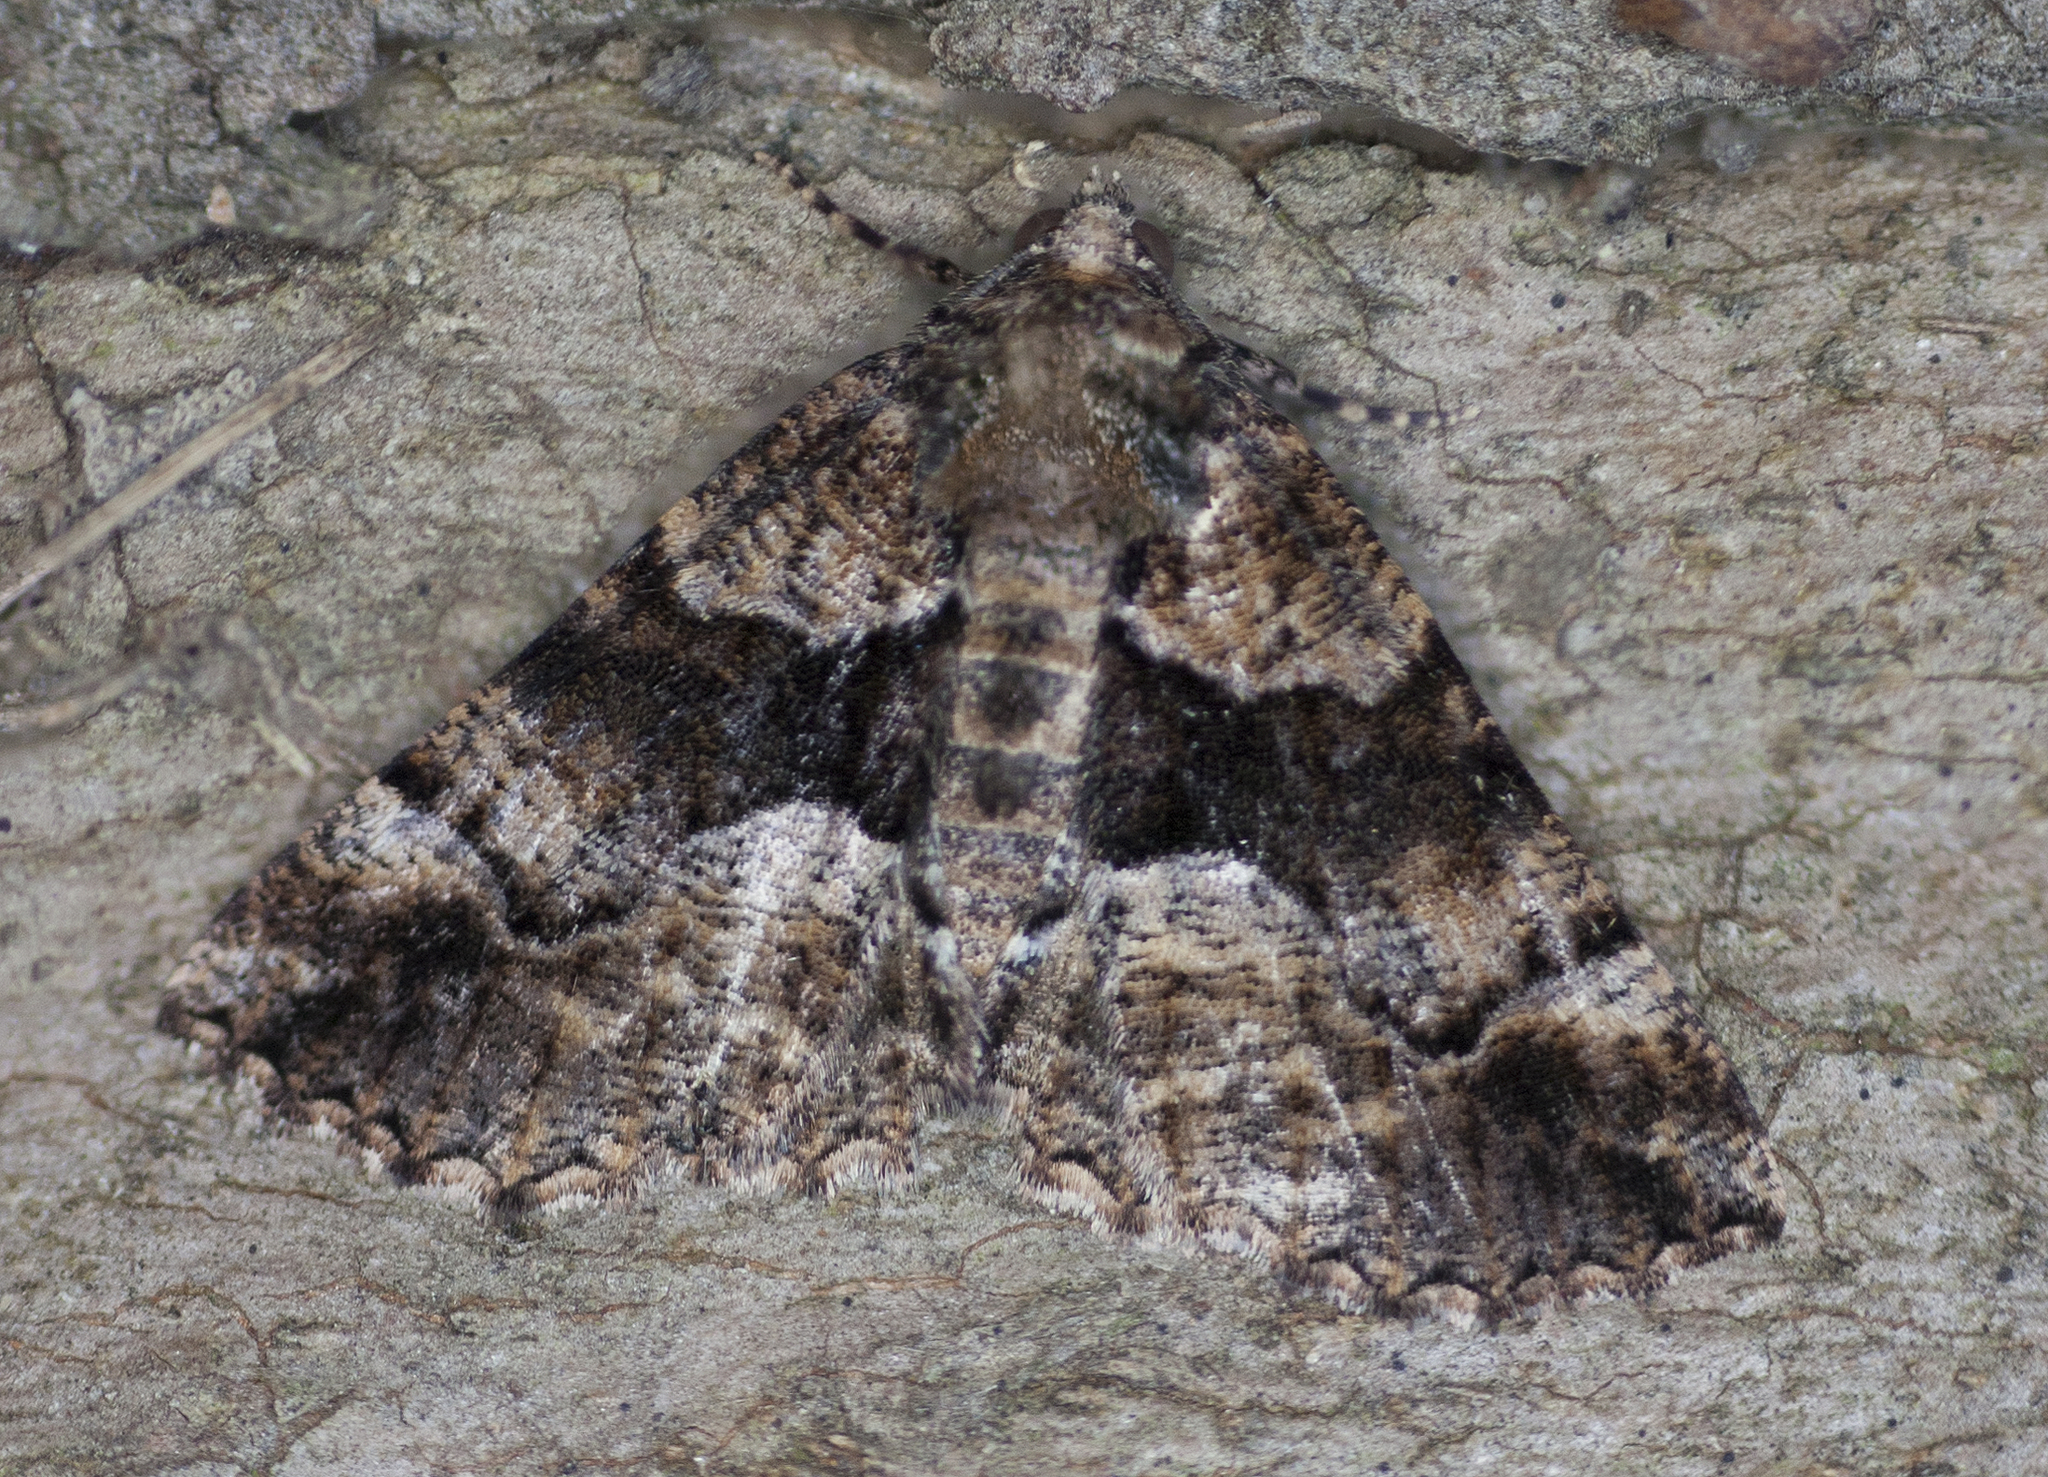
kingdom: Animalia
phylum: Arthropoda
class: Insecta
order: Lepidoptera
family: Geometridae
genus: Gastrina
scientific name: Gastrina cristaria
